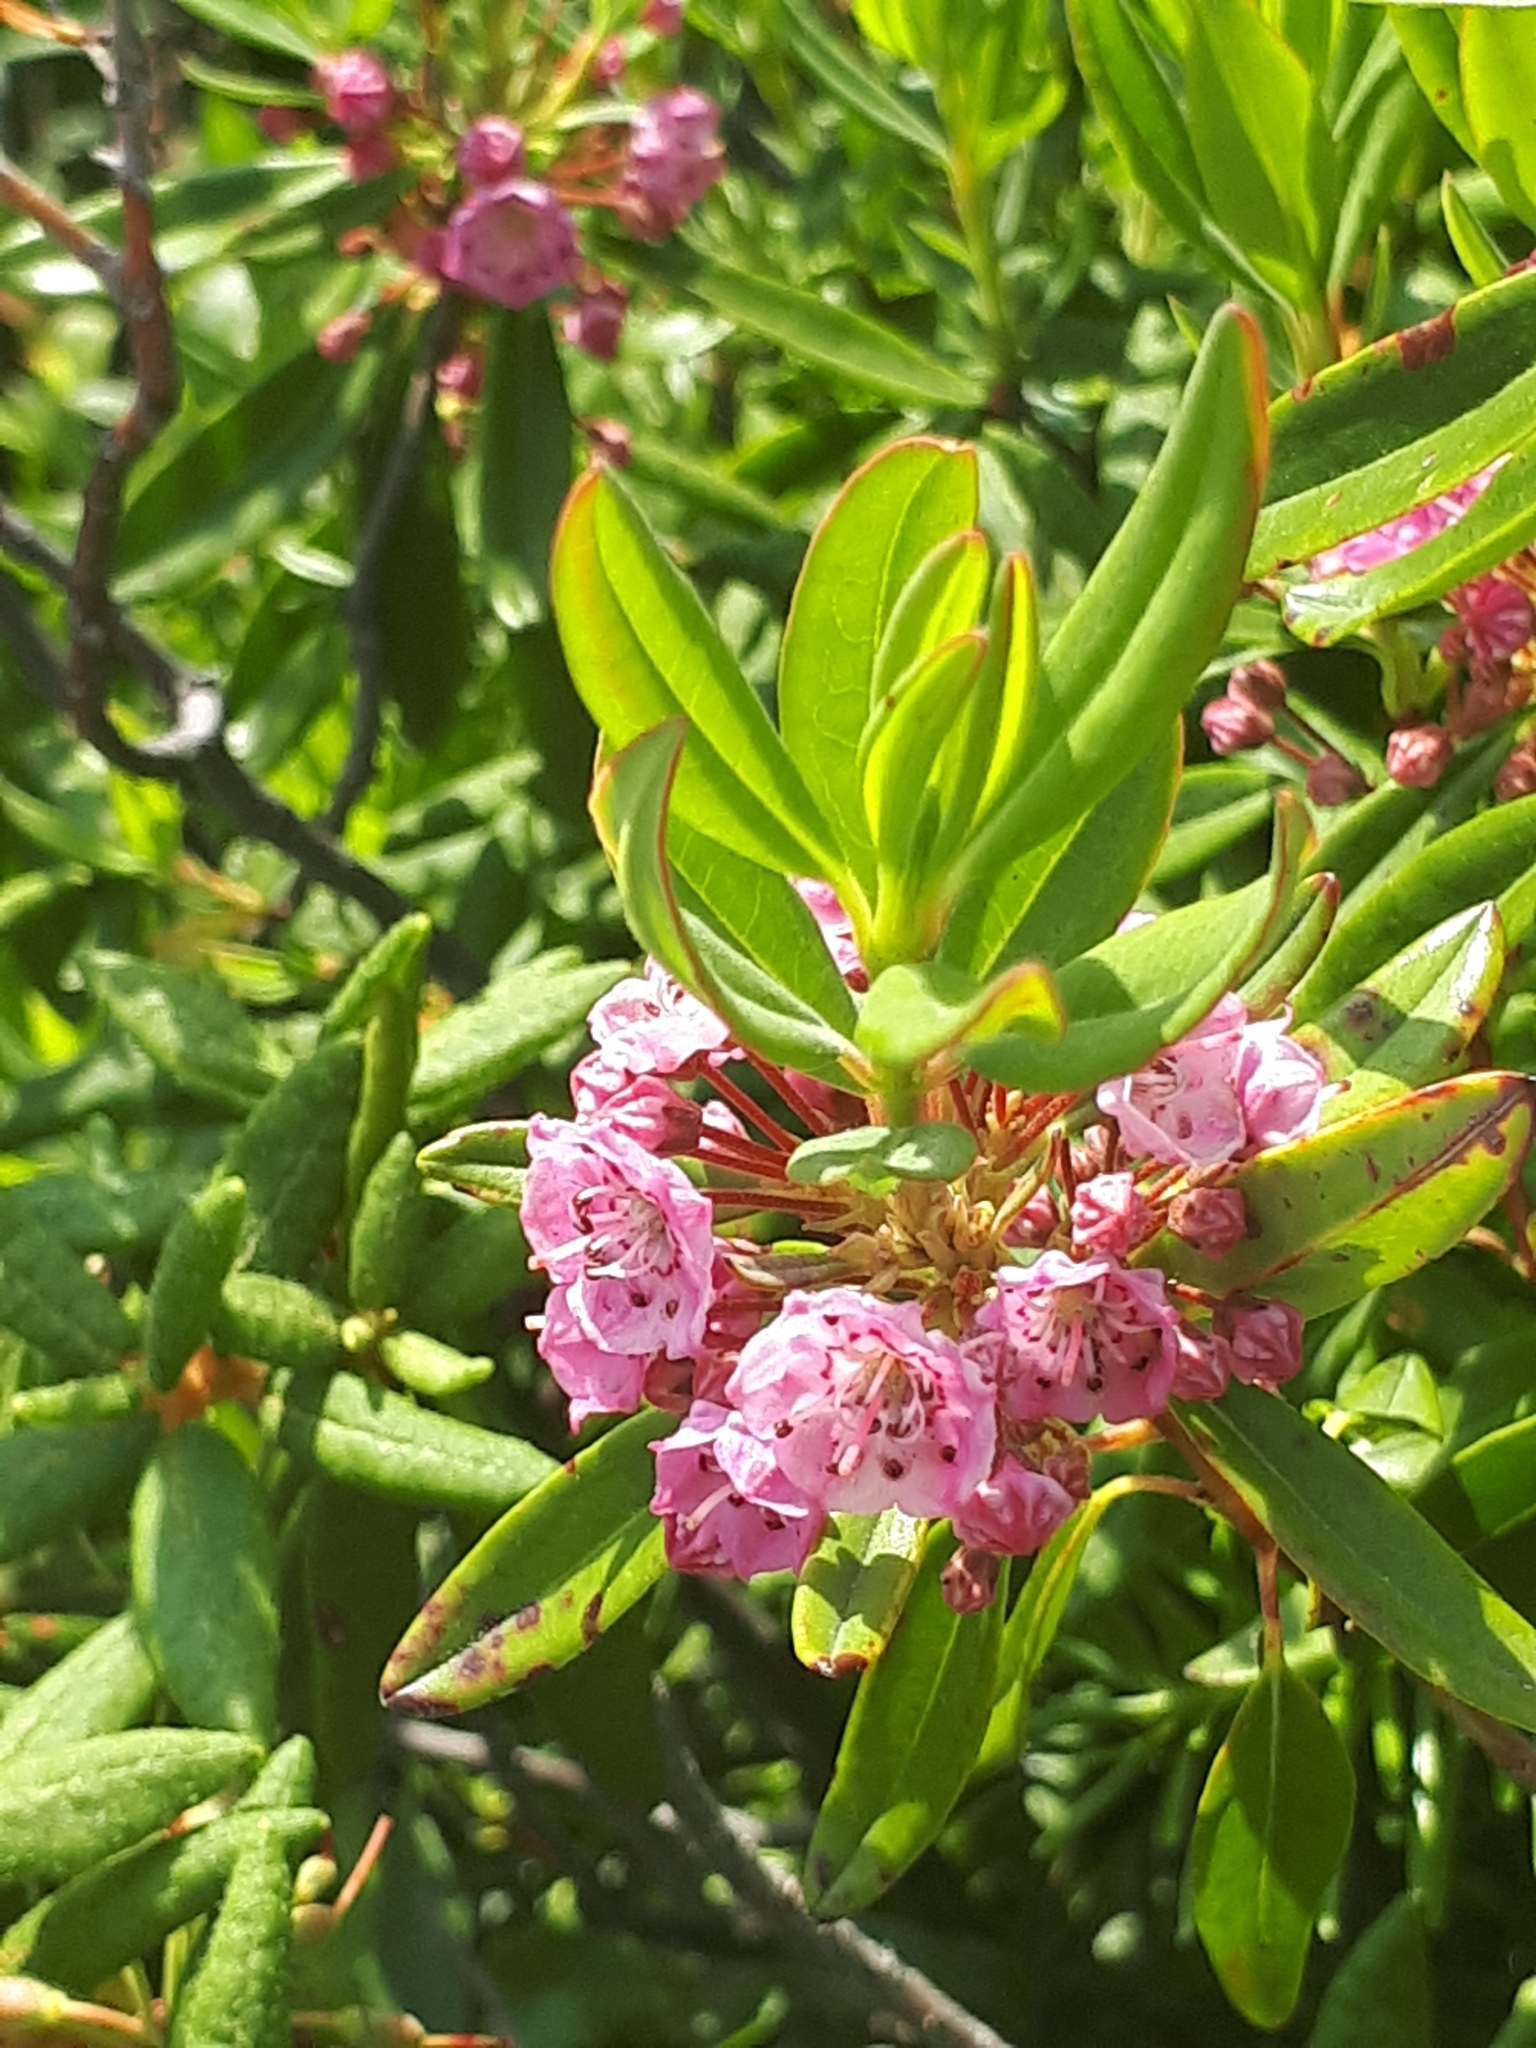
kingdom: Plantae
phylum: Tracheophyta
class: Magnoliopsida
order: Ericales
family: Ericaceae
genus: Kalmia
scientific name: Kalmia angustifolia
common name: Sheep-laurel
